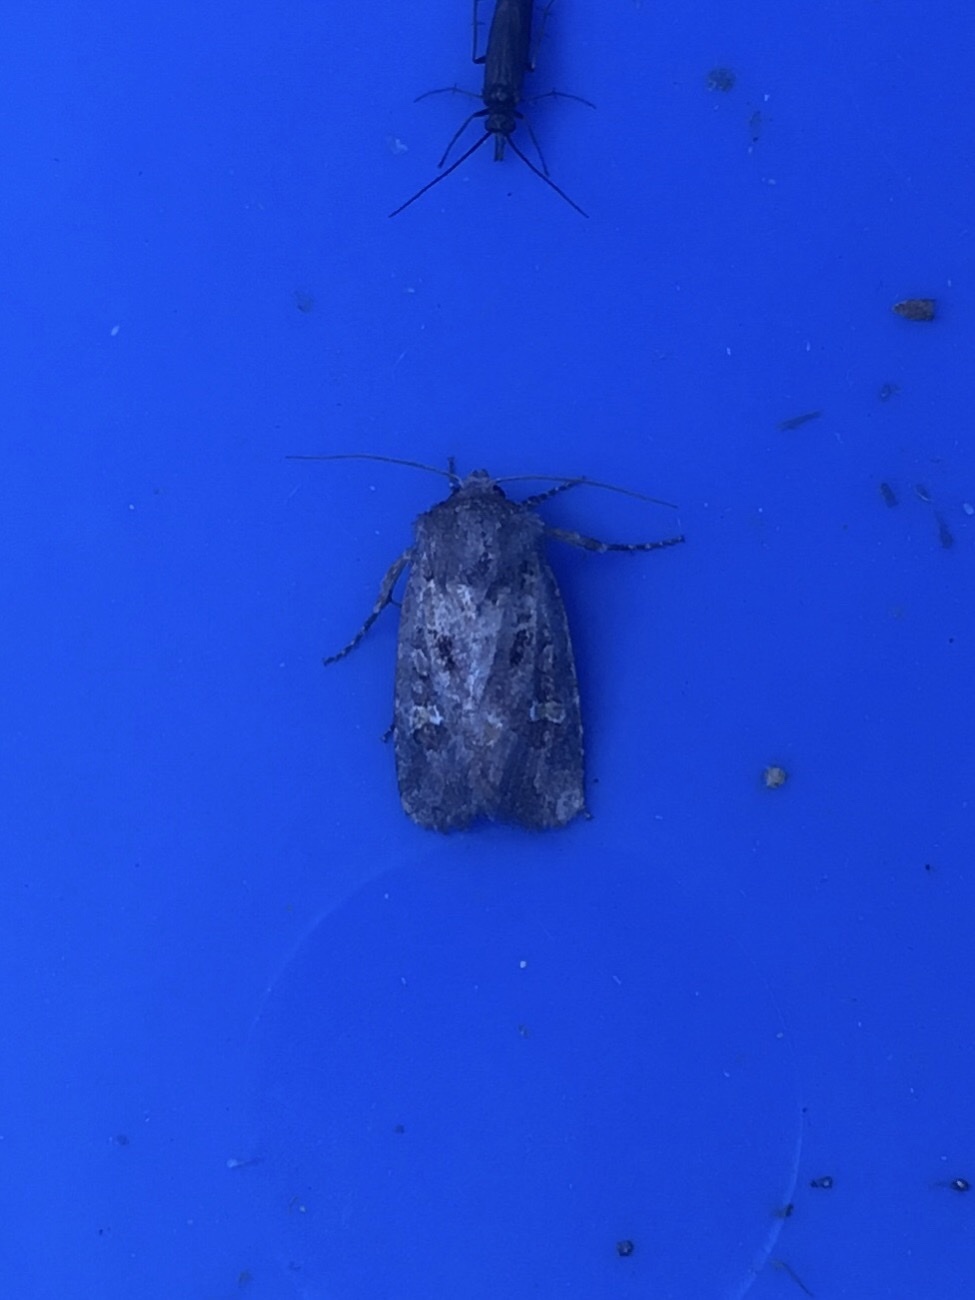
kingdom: Animalia
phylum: Arthropoda
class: Insecta
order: Lepidoptera
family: Noctuidae
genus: Lacinipolia
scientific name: Lacinipolia renigera
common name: Kidney-spotted minor
